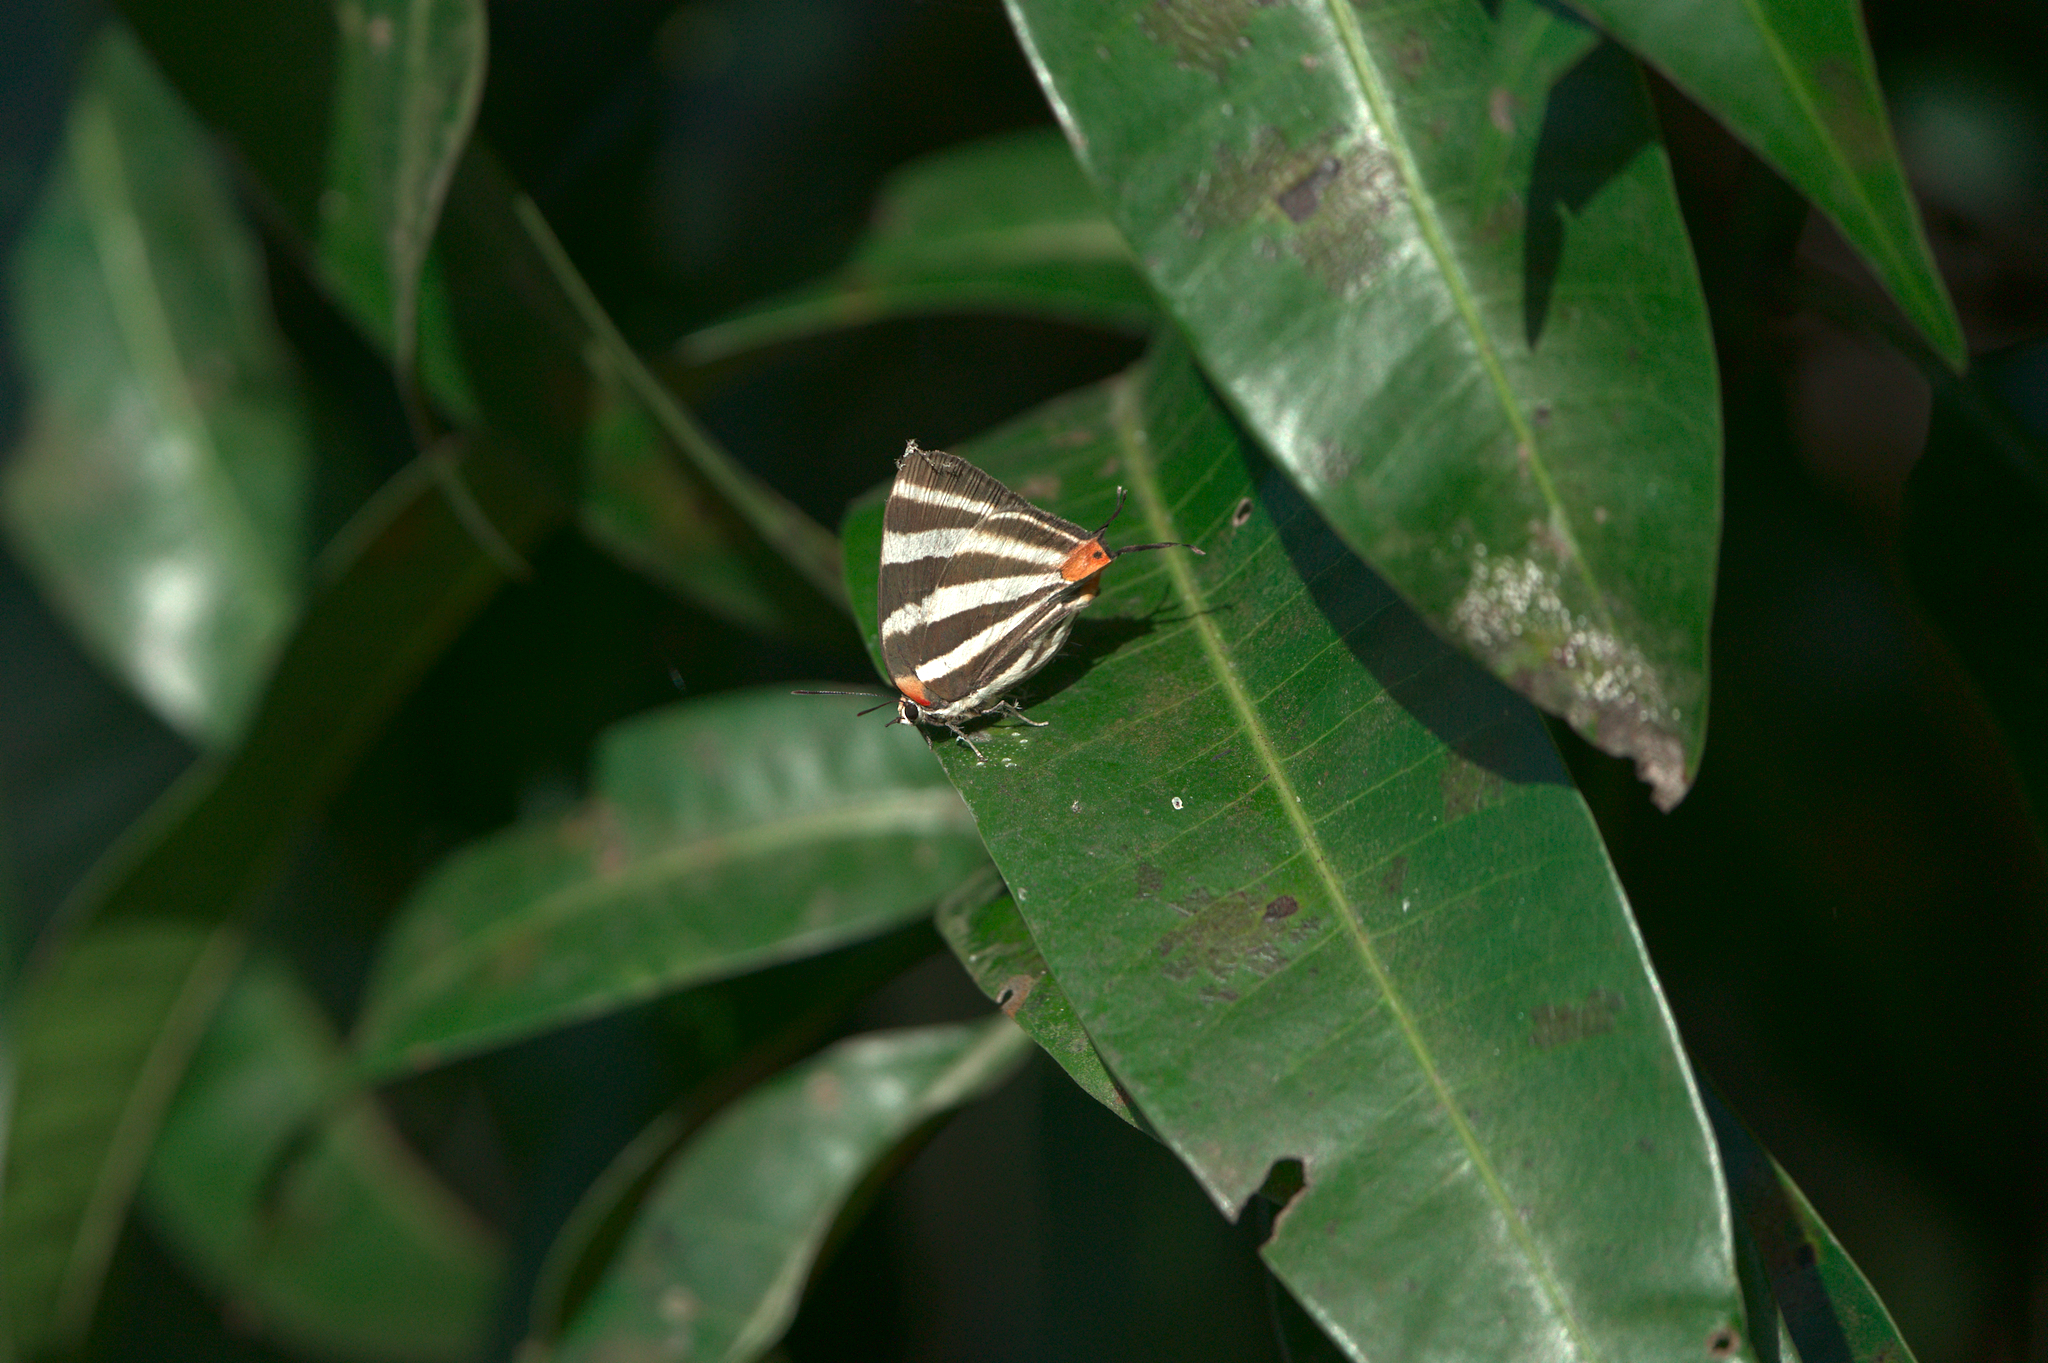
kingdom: Animalia
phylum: Arthropoda
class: Insecta
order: Lepidoptera
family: Lycaenidae
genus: Thecla
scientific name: Thecla bathildis
